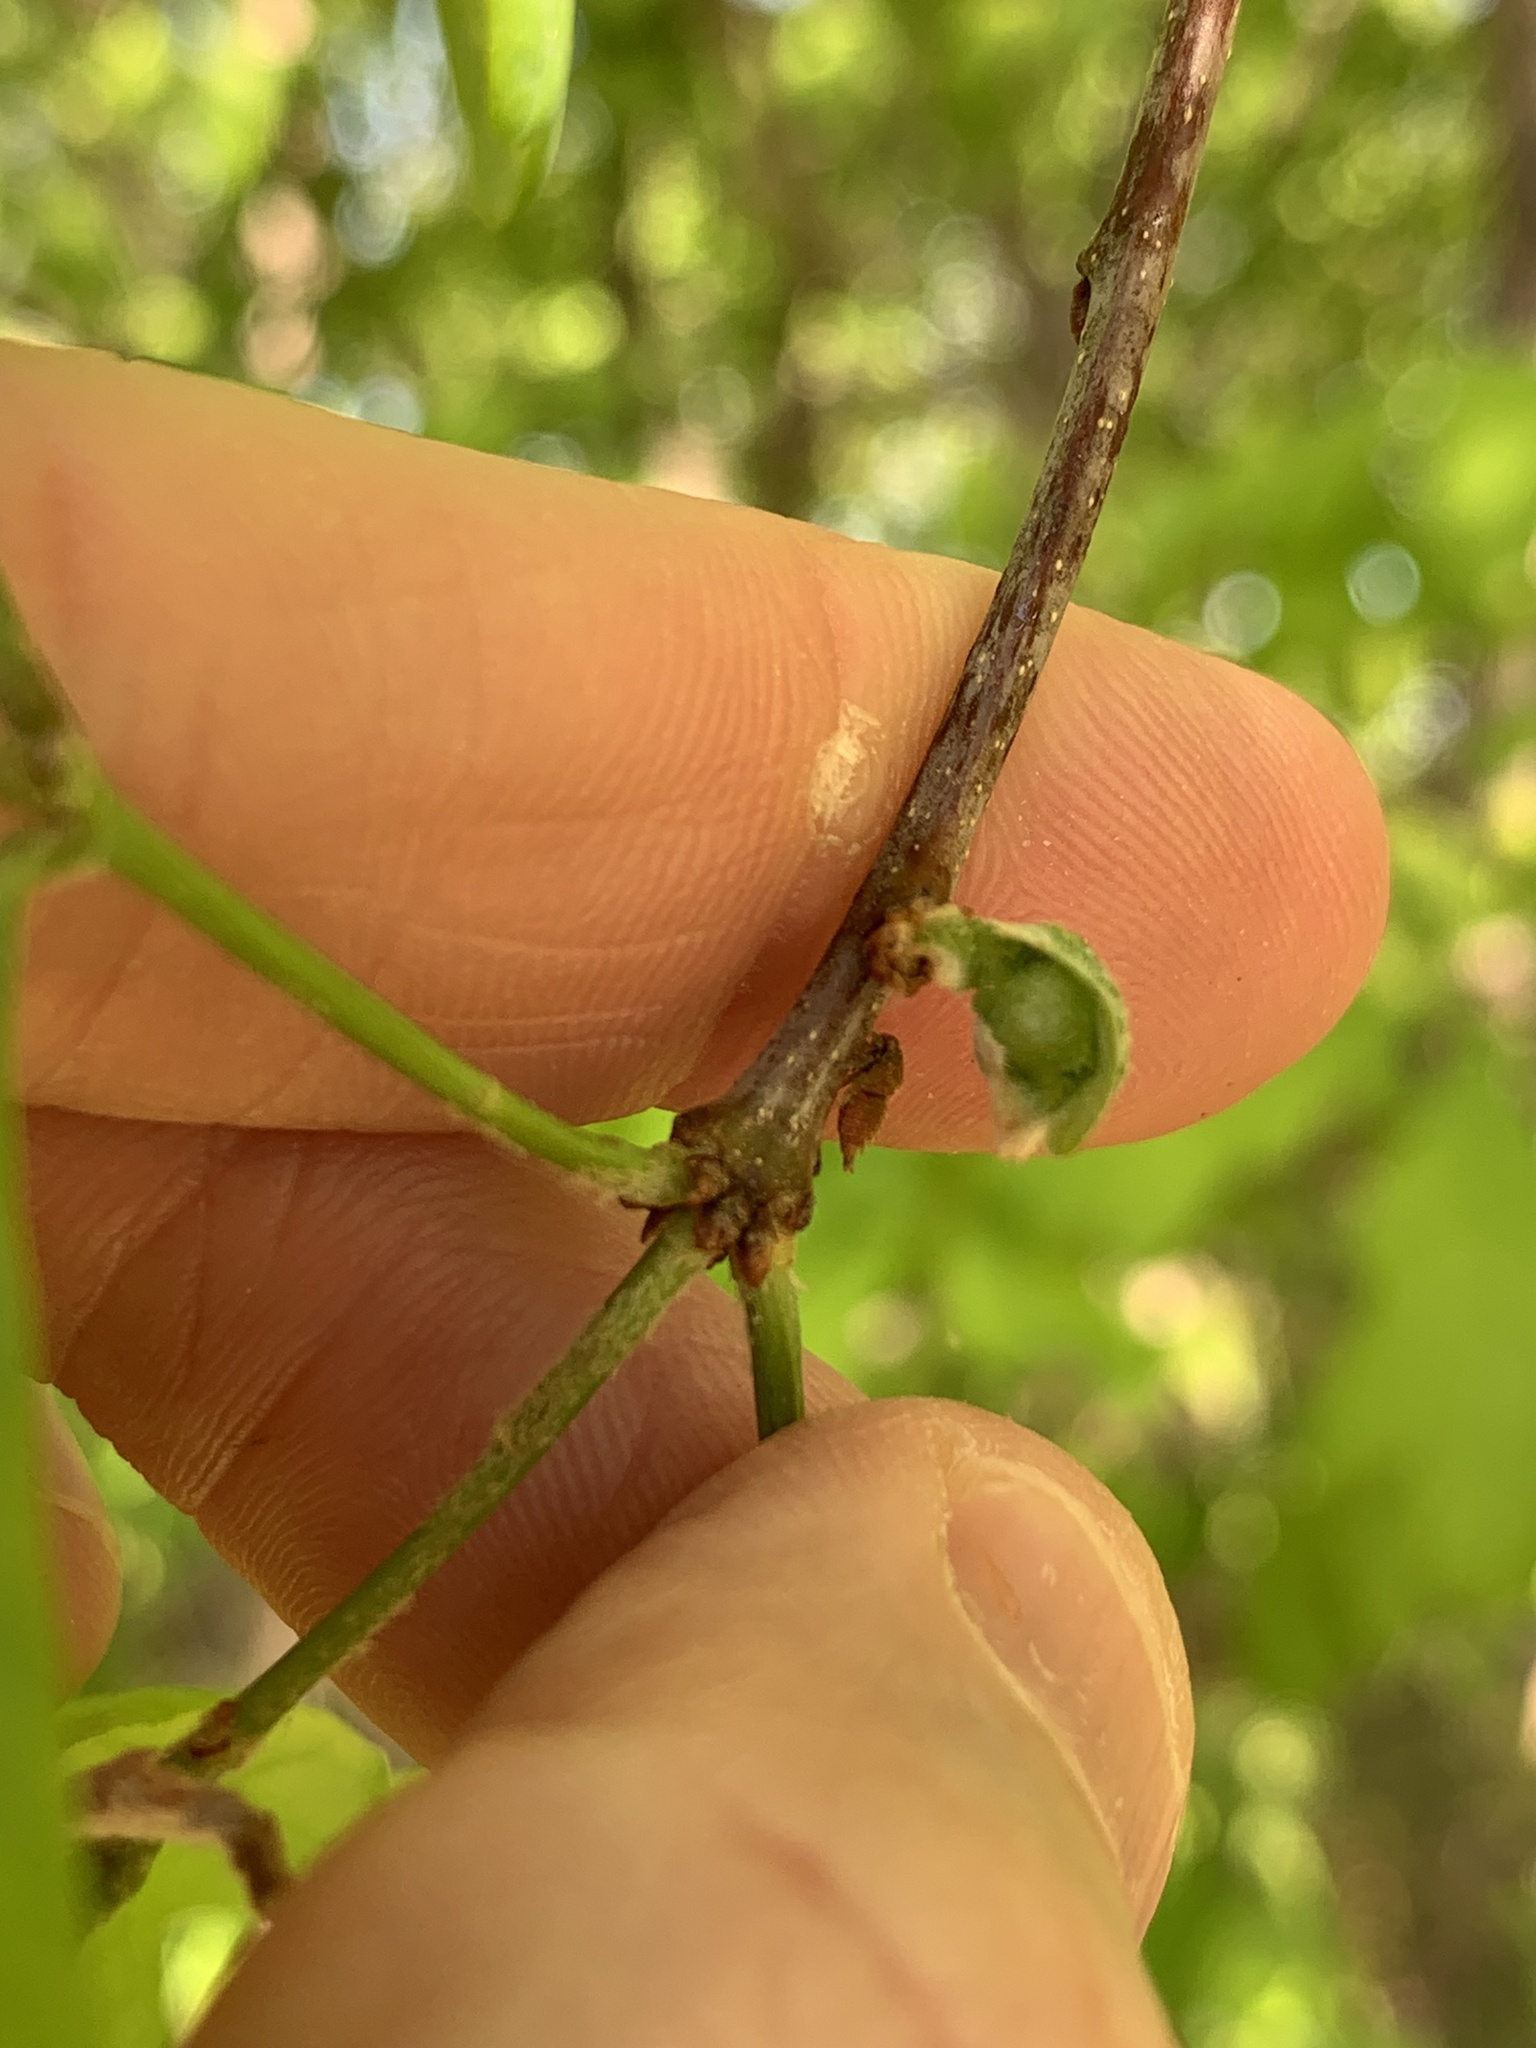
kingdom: Animalia
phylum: Arthropoda
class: Insecta
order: Hymenoptera
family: Cynipidae
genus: Andricus
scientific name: Andricus
